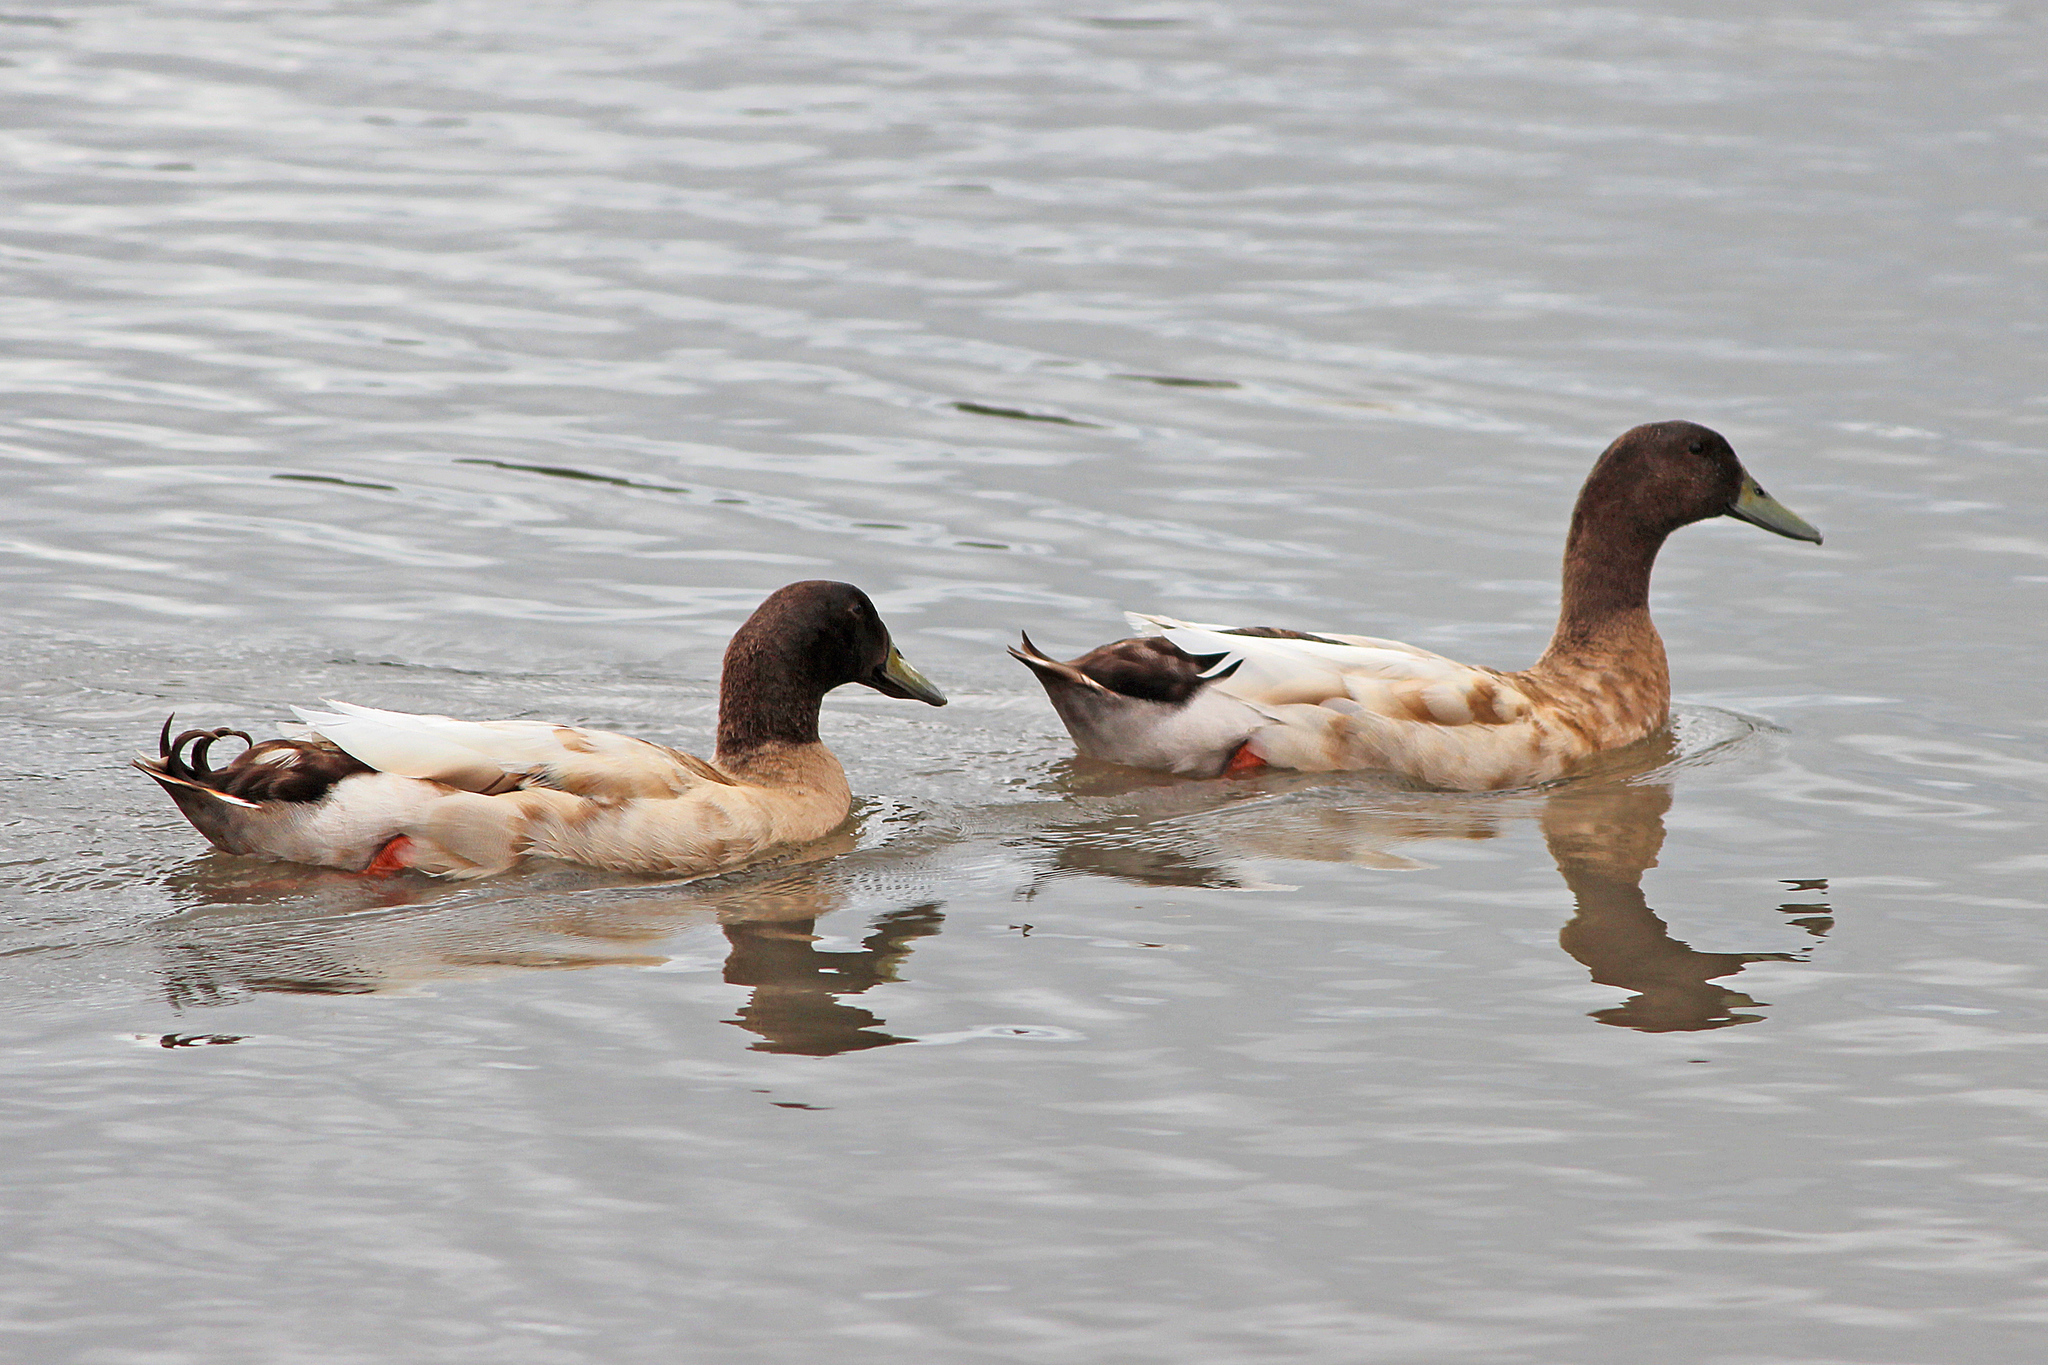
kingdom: Animalia
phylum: Chordata
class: Aves
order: Anseriformes
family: Anatidae
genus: Anas
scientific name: Anas platyrhynchos
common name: Mallard
